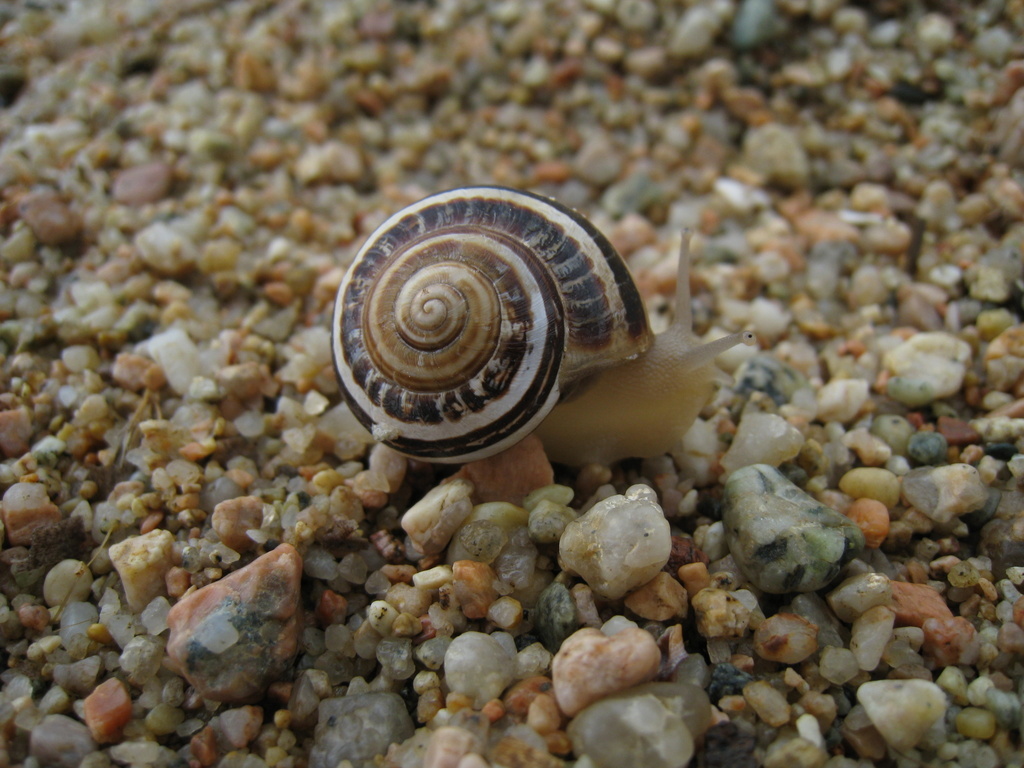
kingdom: Animalia
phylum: Mollusca
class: Gastropoda
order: Stylommatophora
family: Helicidae
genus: Eobania
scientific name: Eobania vermiculata
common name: Chocolateband snail
